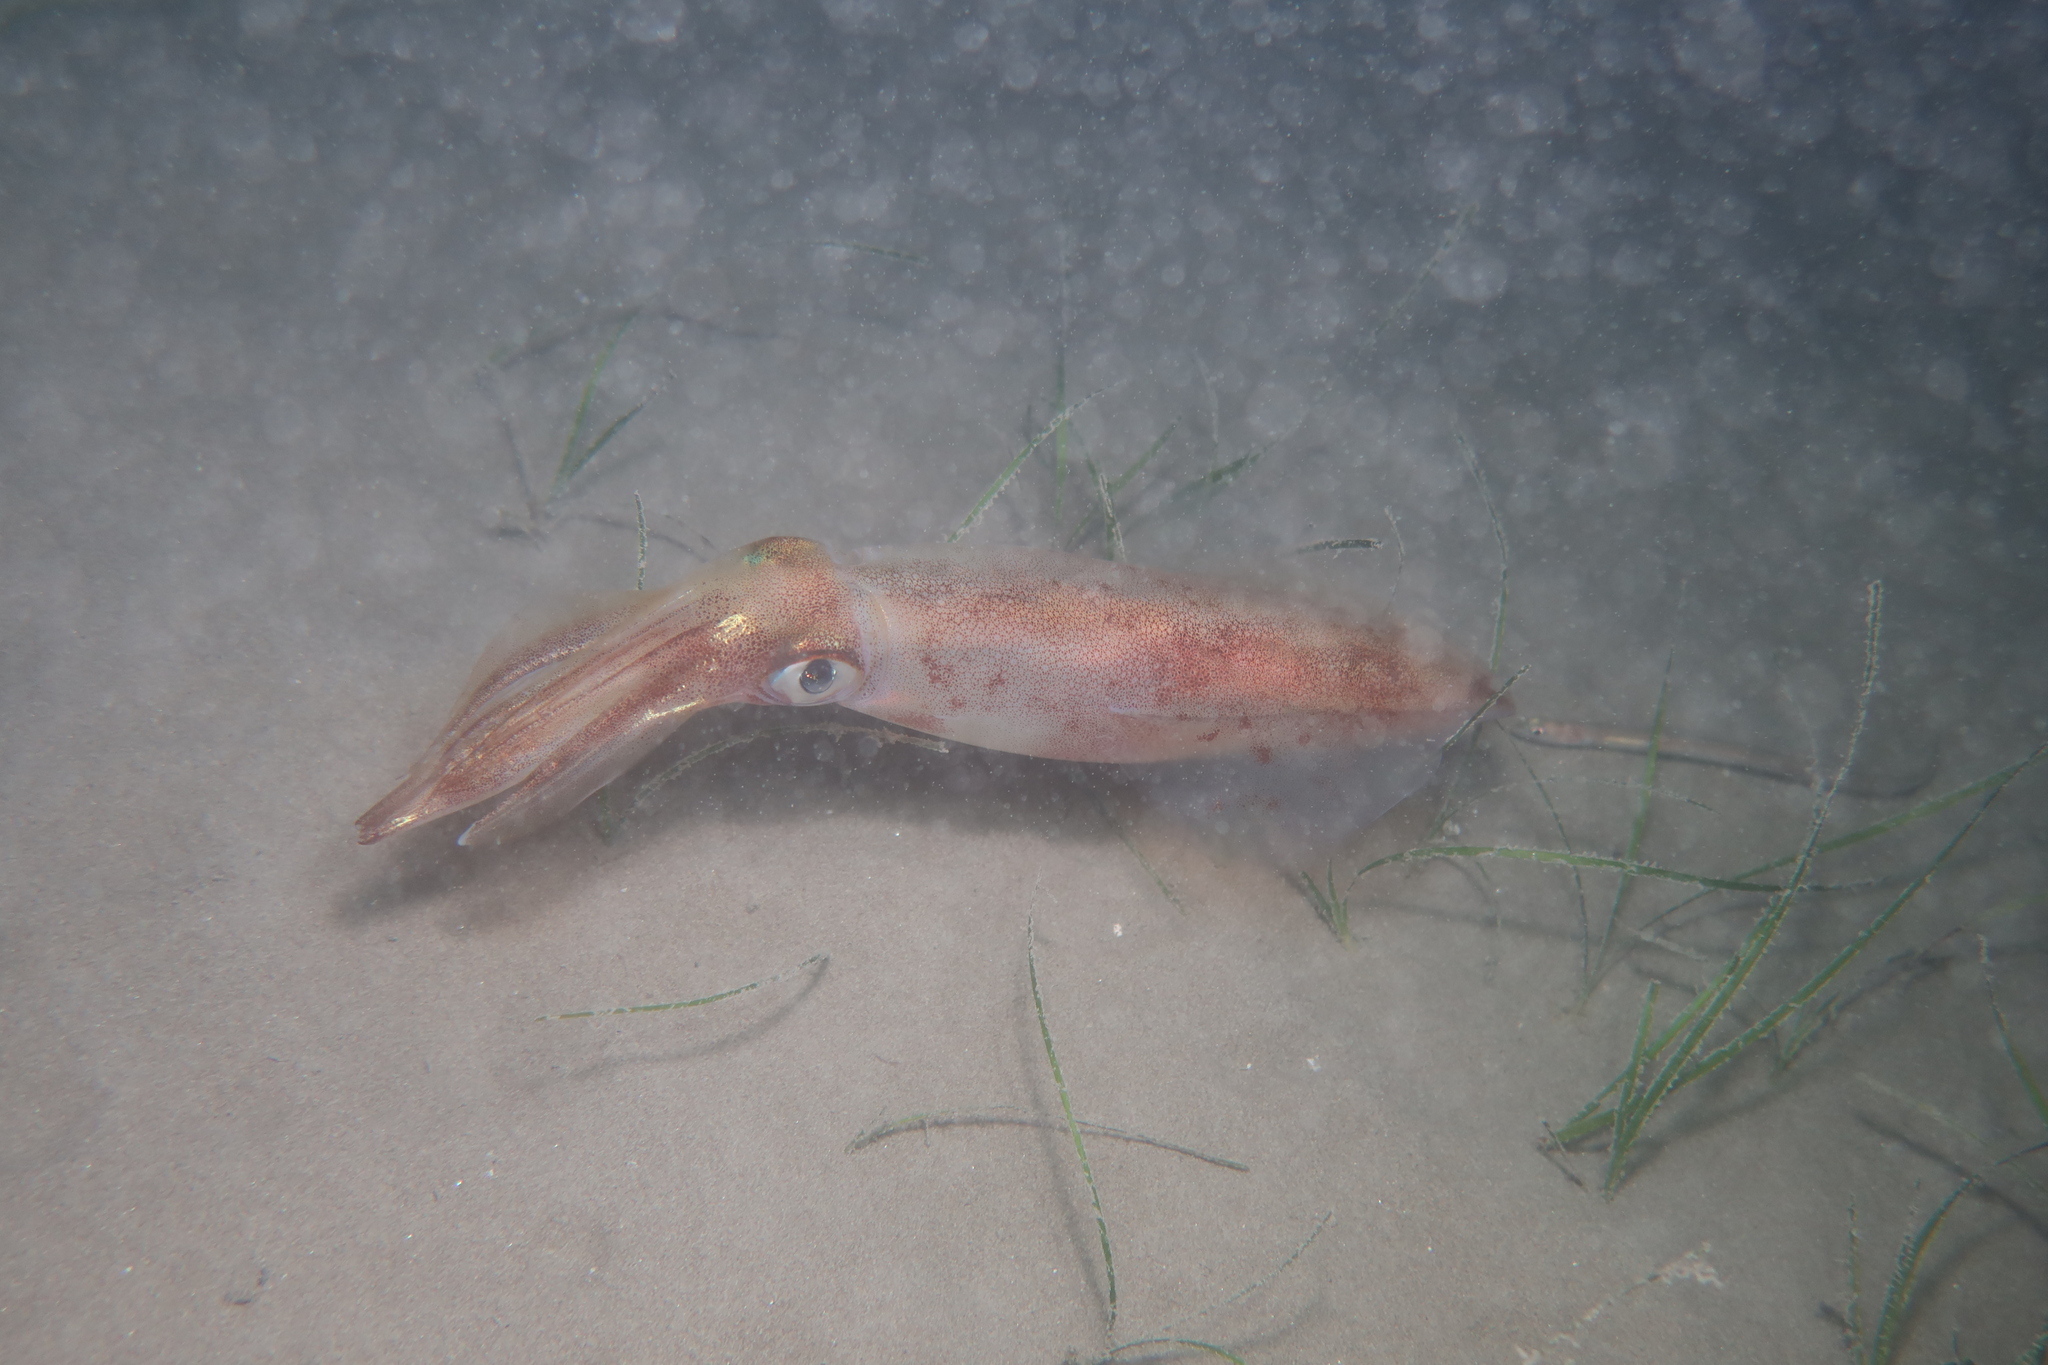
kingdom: Animalia
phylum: Mollusca
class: Cephalopoda
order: Myopsida
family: Loliginidae
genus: Loligo
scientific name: Loligo vulgaris
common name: European squid
